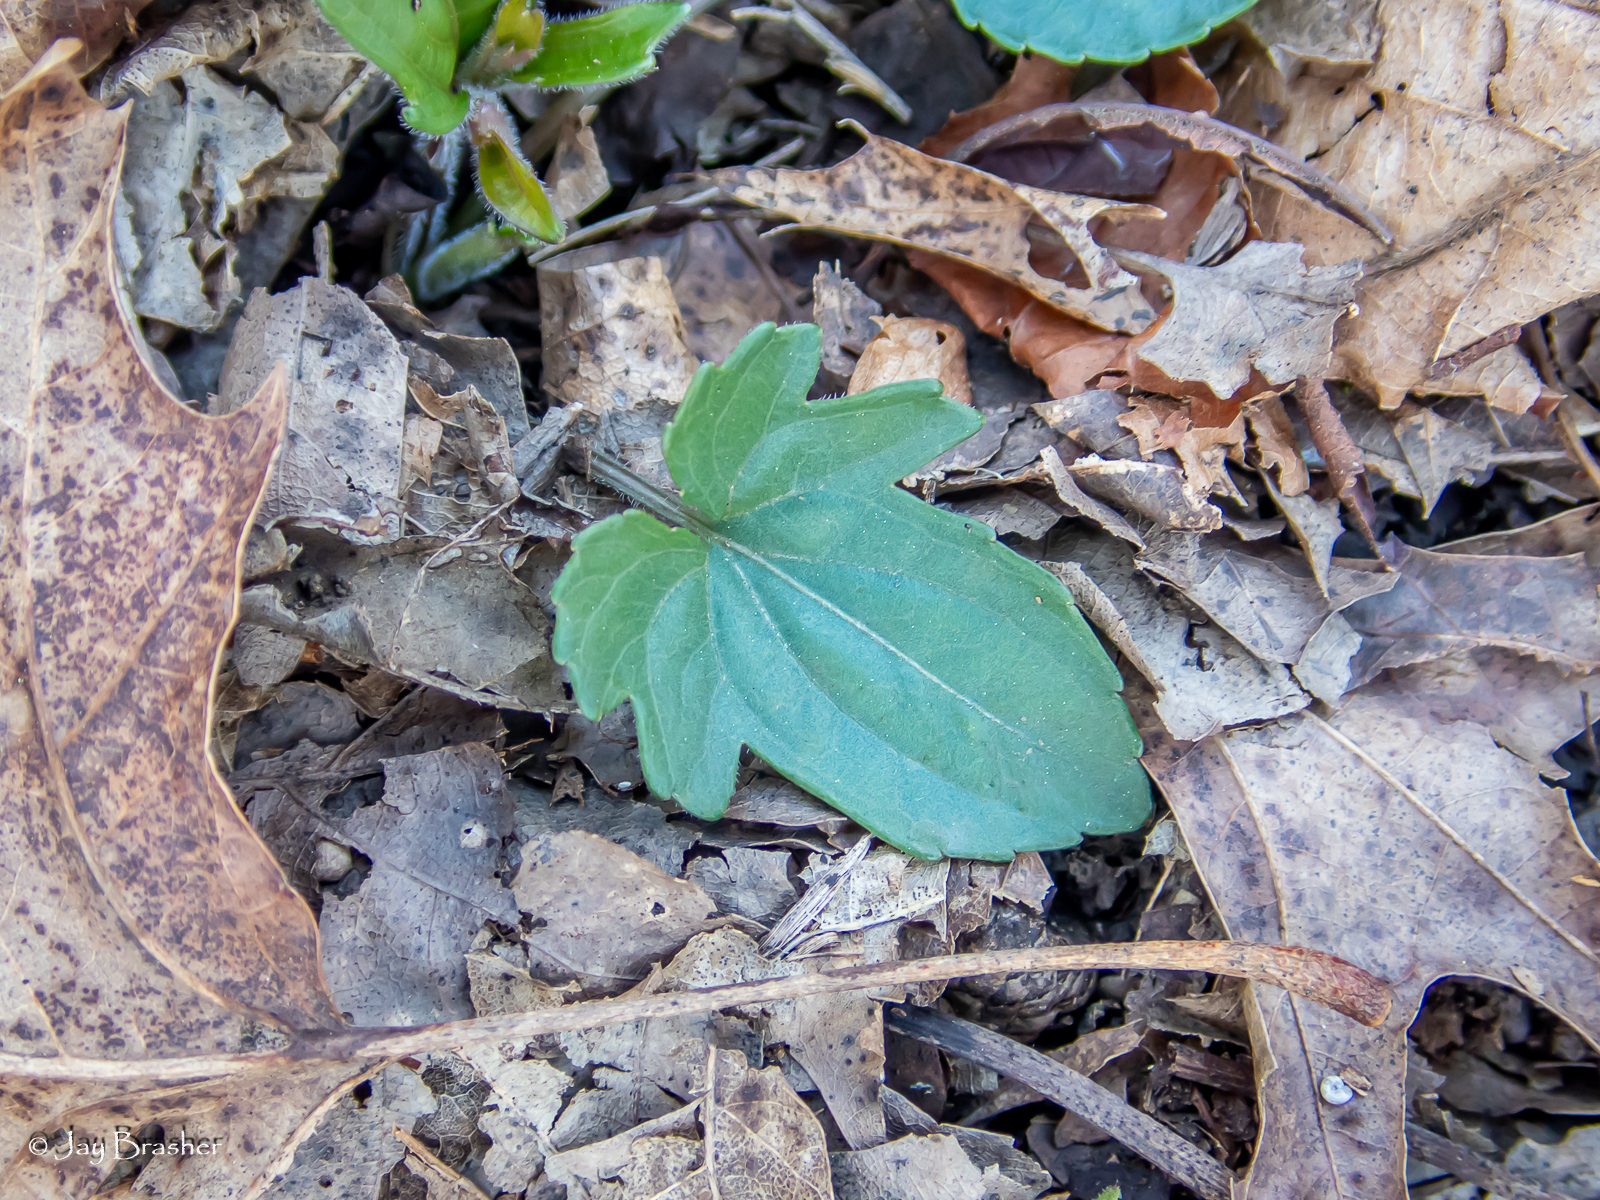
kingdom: Plantae
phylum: Tracheophyta
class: Magnoliopsida
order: Malpighiales
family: Violaceae
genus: Viola
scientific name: Viola palmata
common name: Early blue violet
